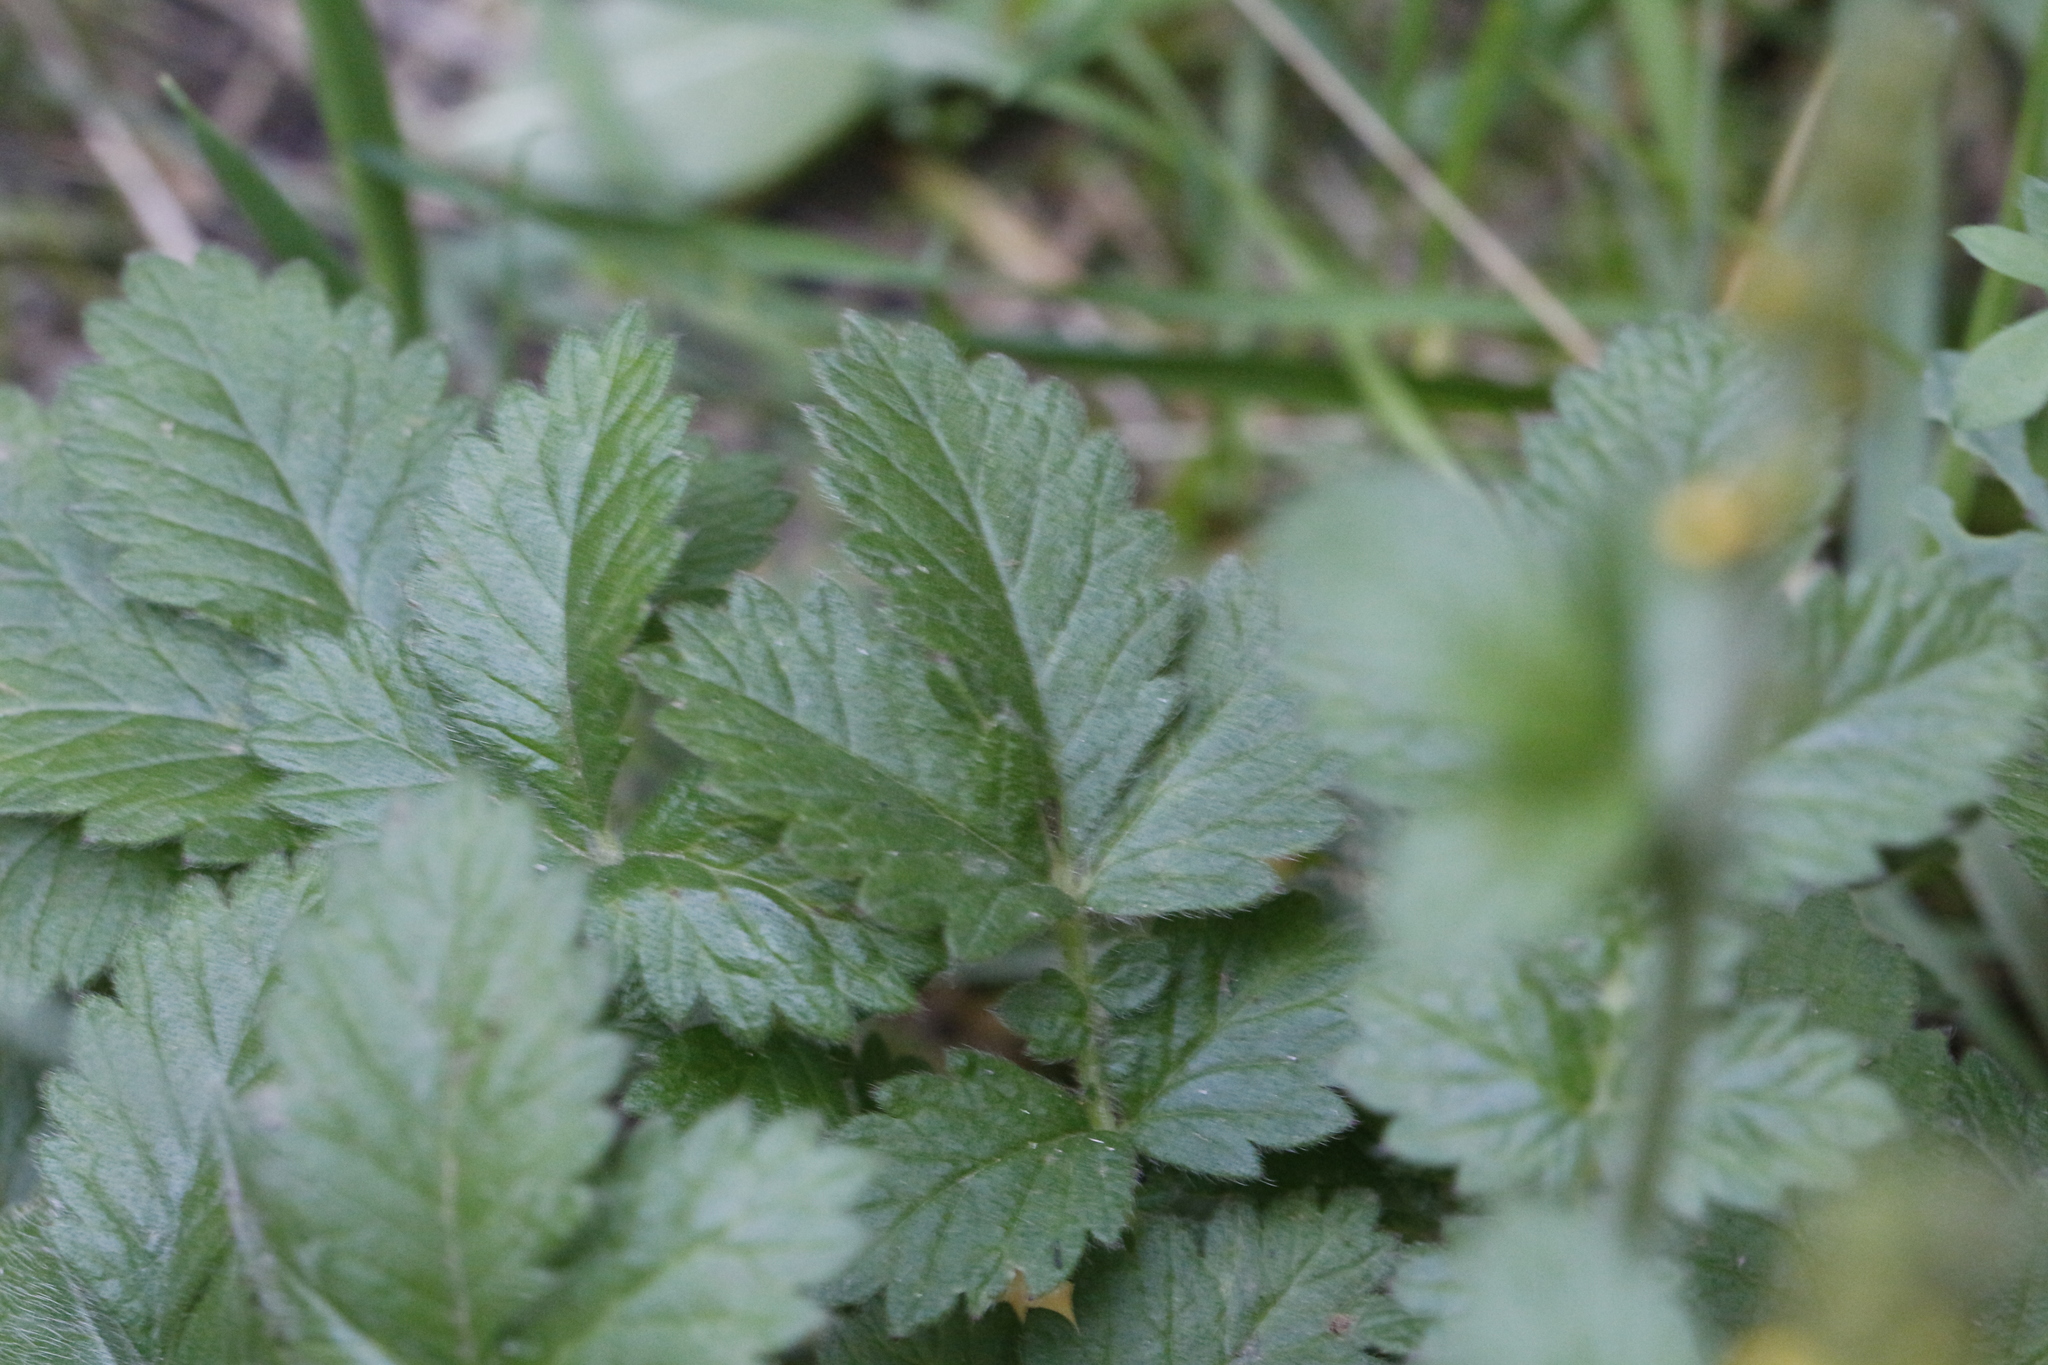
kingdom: Plantae
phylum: Tracheophyta
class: Magnoliopsida
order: Rosales
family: Rosaceae
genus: Agrimonia
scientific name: Agrimonia eupatoria
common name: Agrimony
